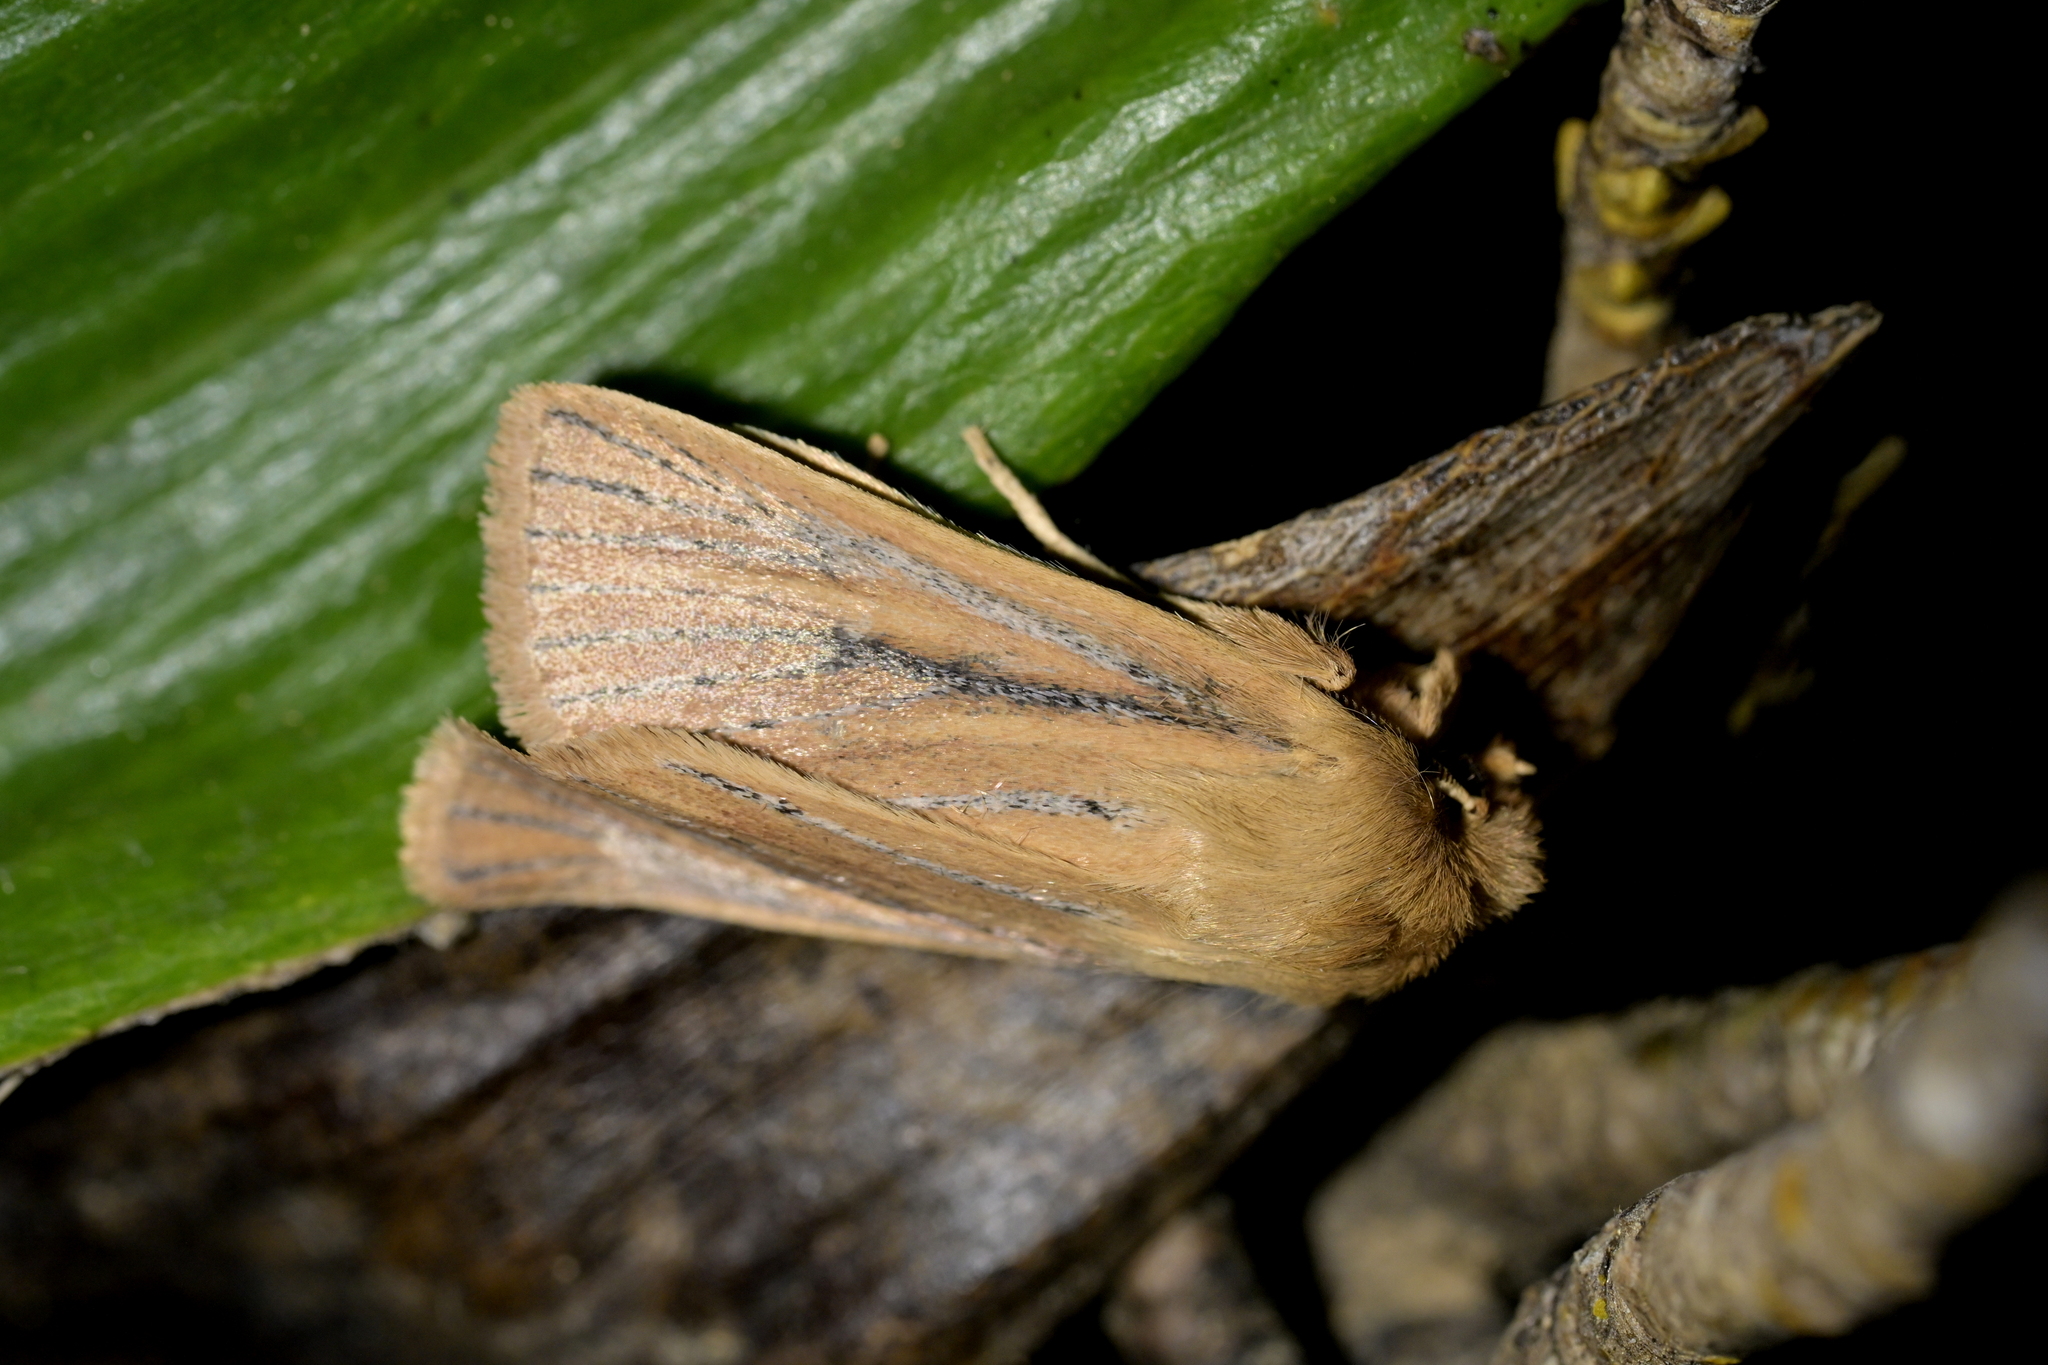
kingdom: Animalia
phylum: Arthropoda
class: Insecta
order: Lepidoptera
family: Noctuidae
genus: Ichneutica
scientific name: Ichneutica
